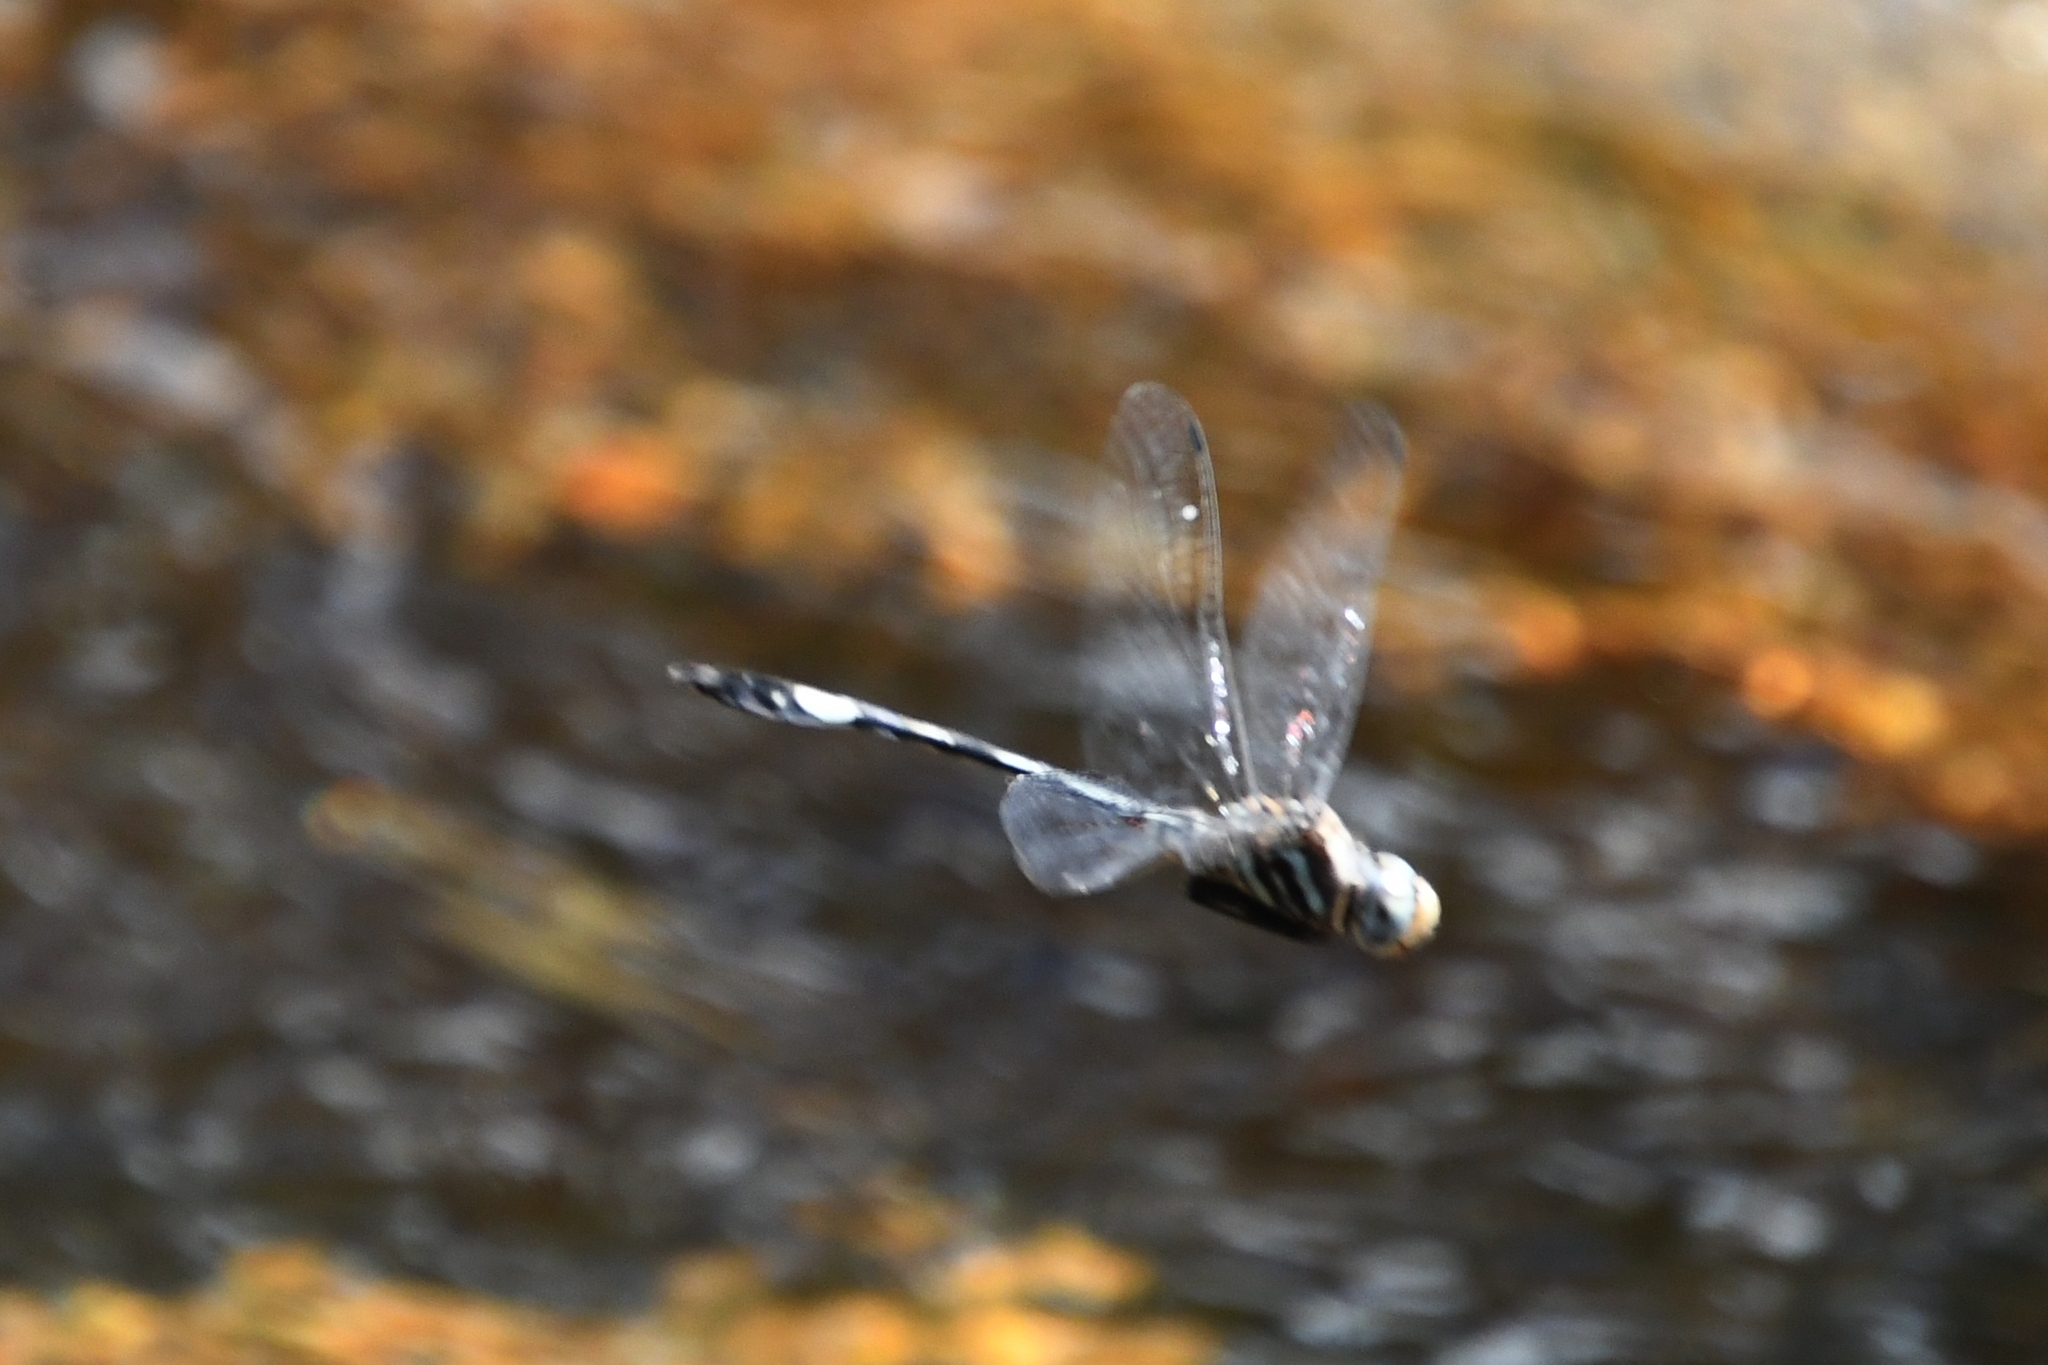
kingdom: Animalia
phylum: Arthropoda
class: Insecta
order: Odonata
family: Libellulidae
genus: Brechmorhoga
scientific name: Brechmorhoga mendax
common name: Pale-faced clubskimmer
